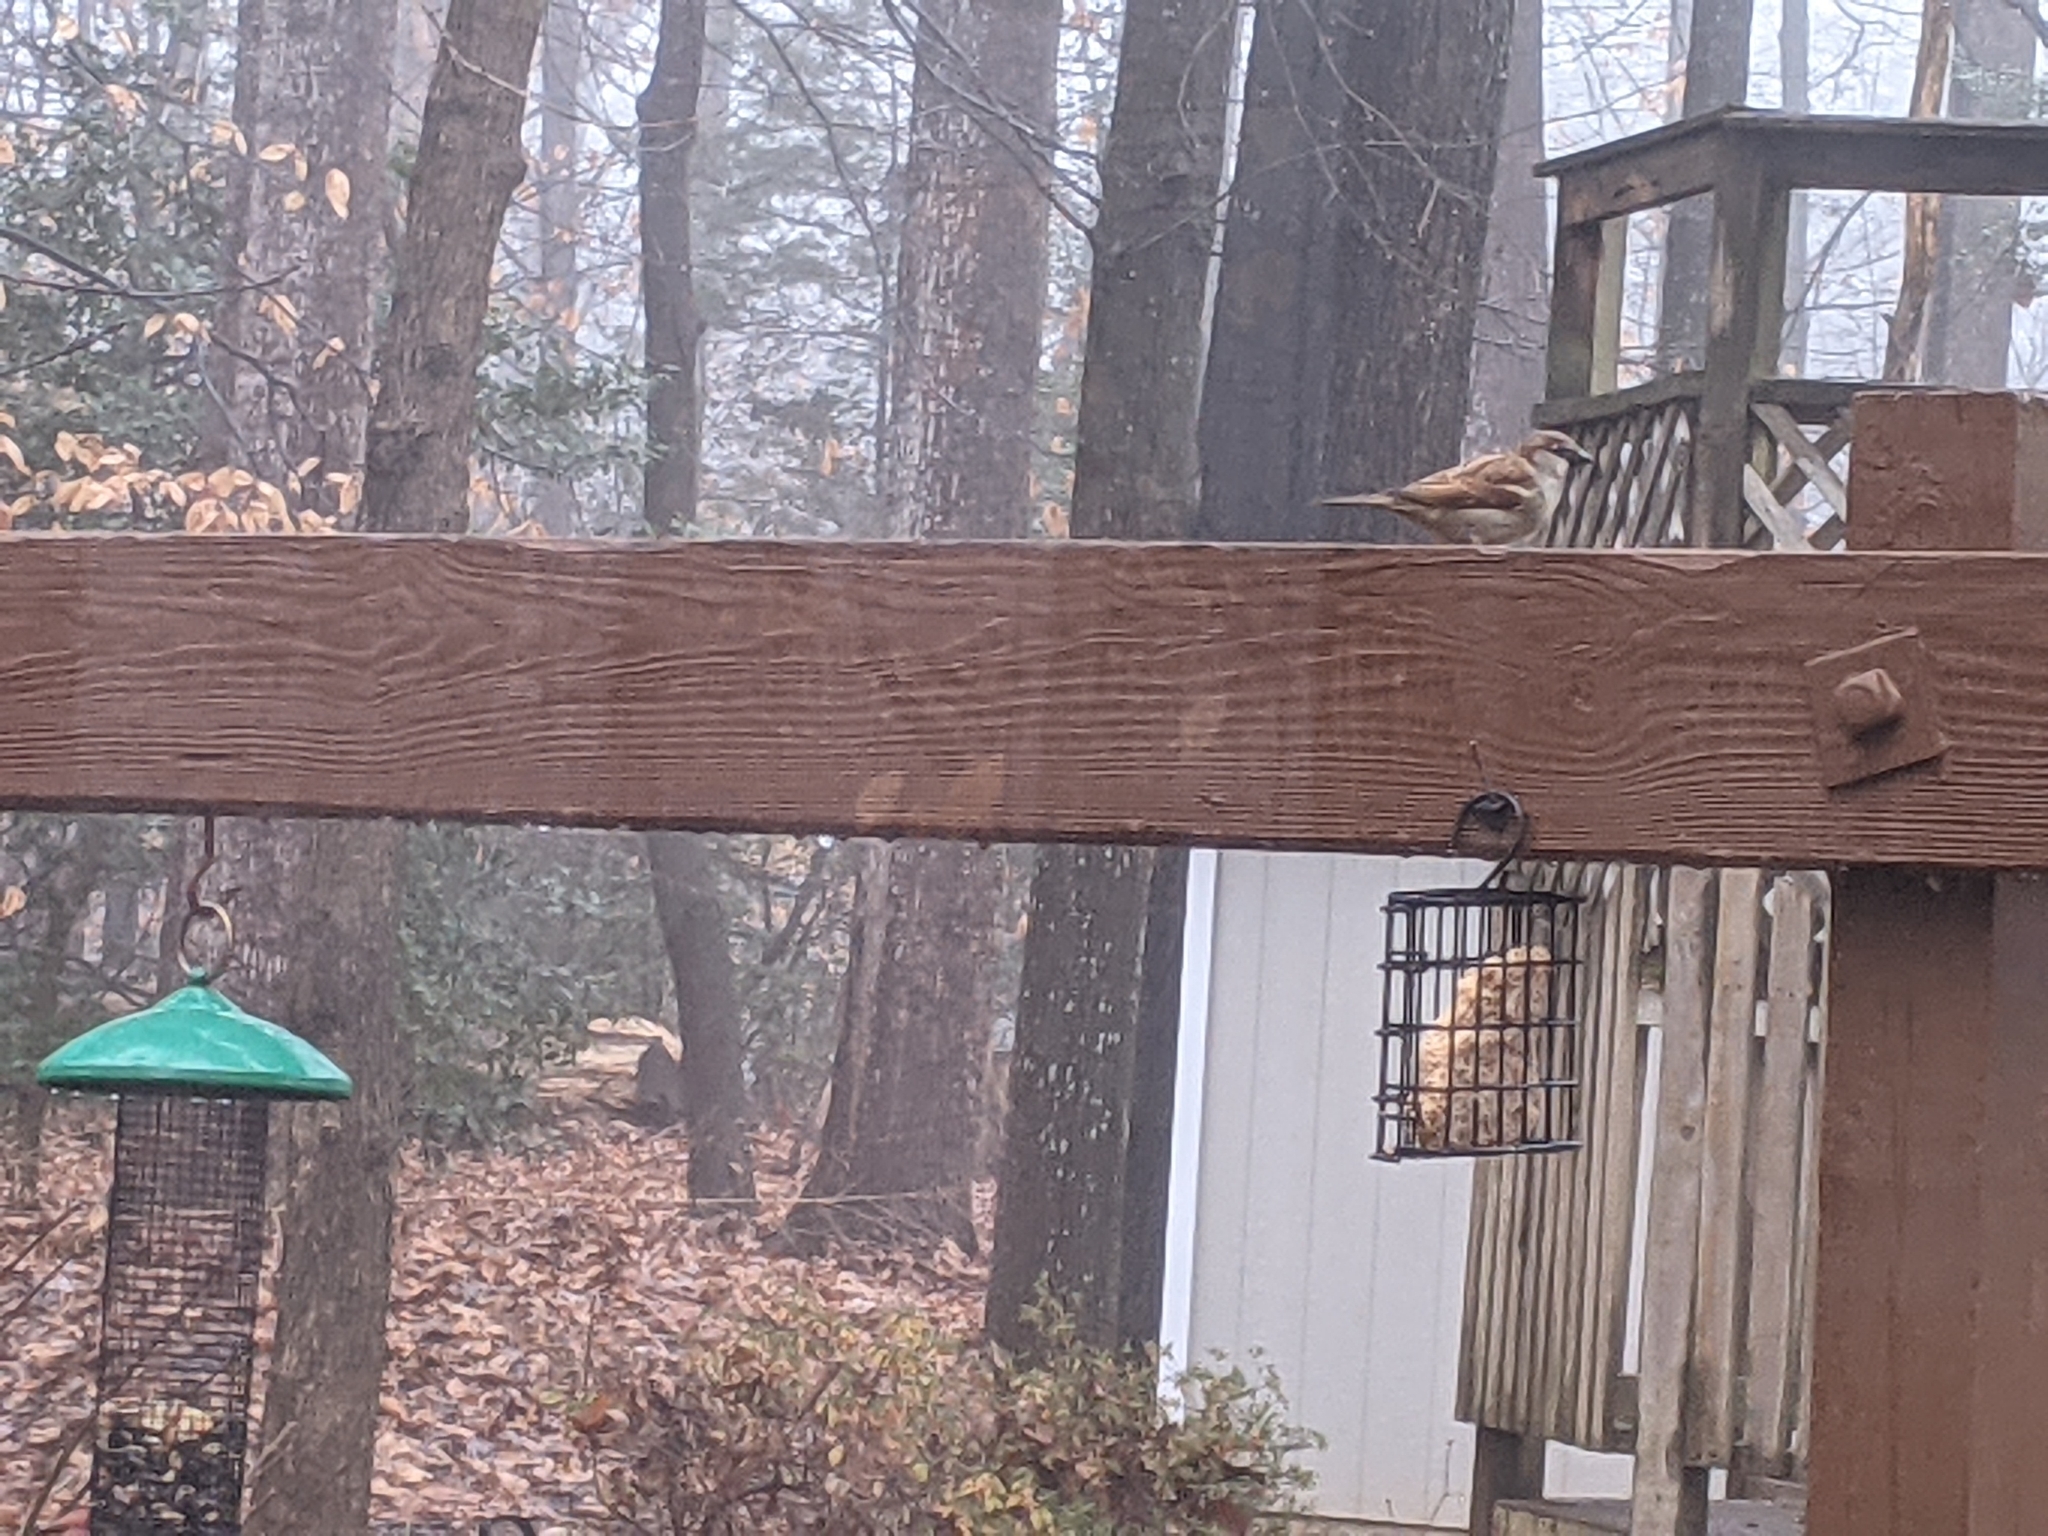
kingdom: Animalia
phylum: Chordata
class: Aves
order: Passeriformes
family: Passeridae
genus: Passer
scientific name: Passer domesticus
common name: House sparrow
